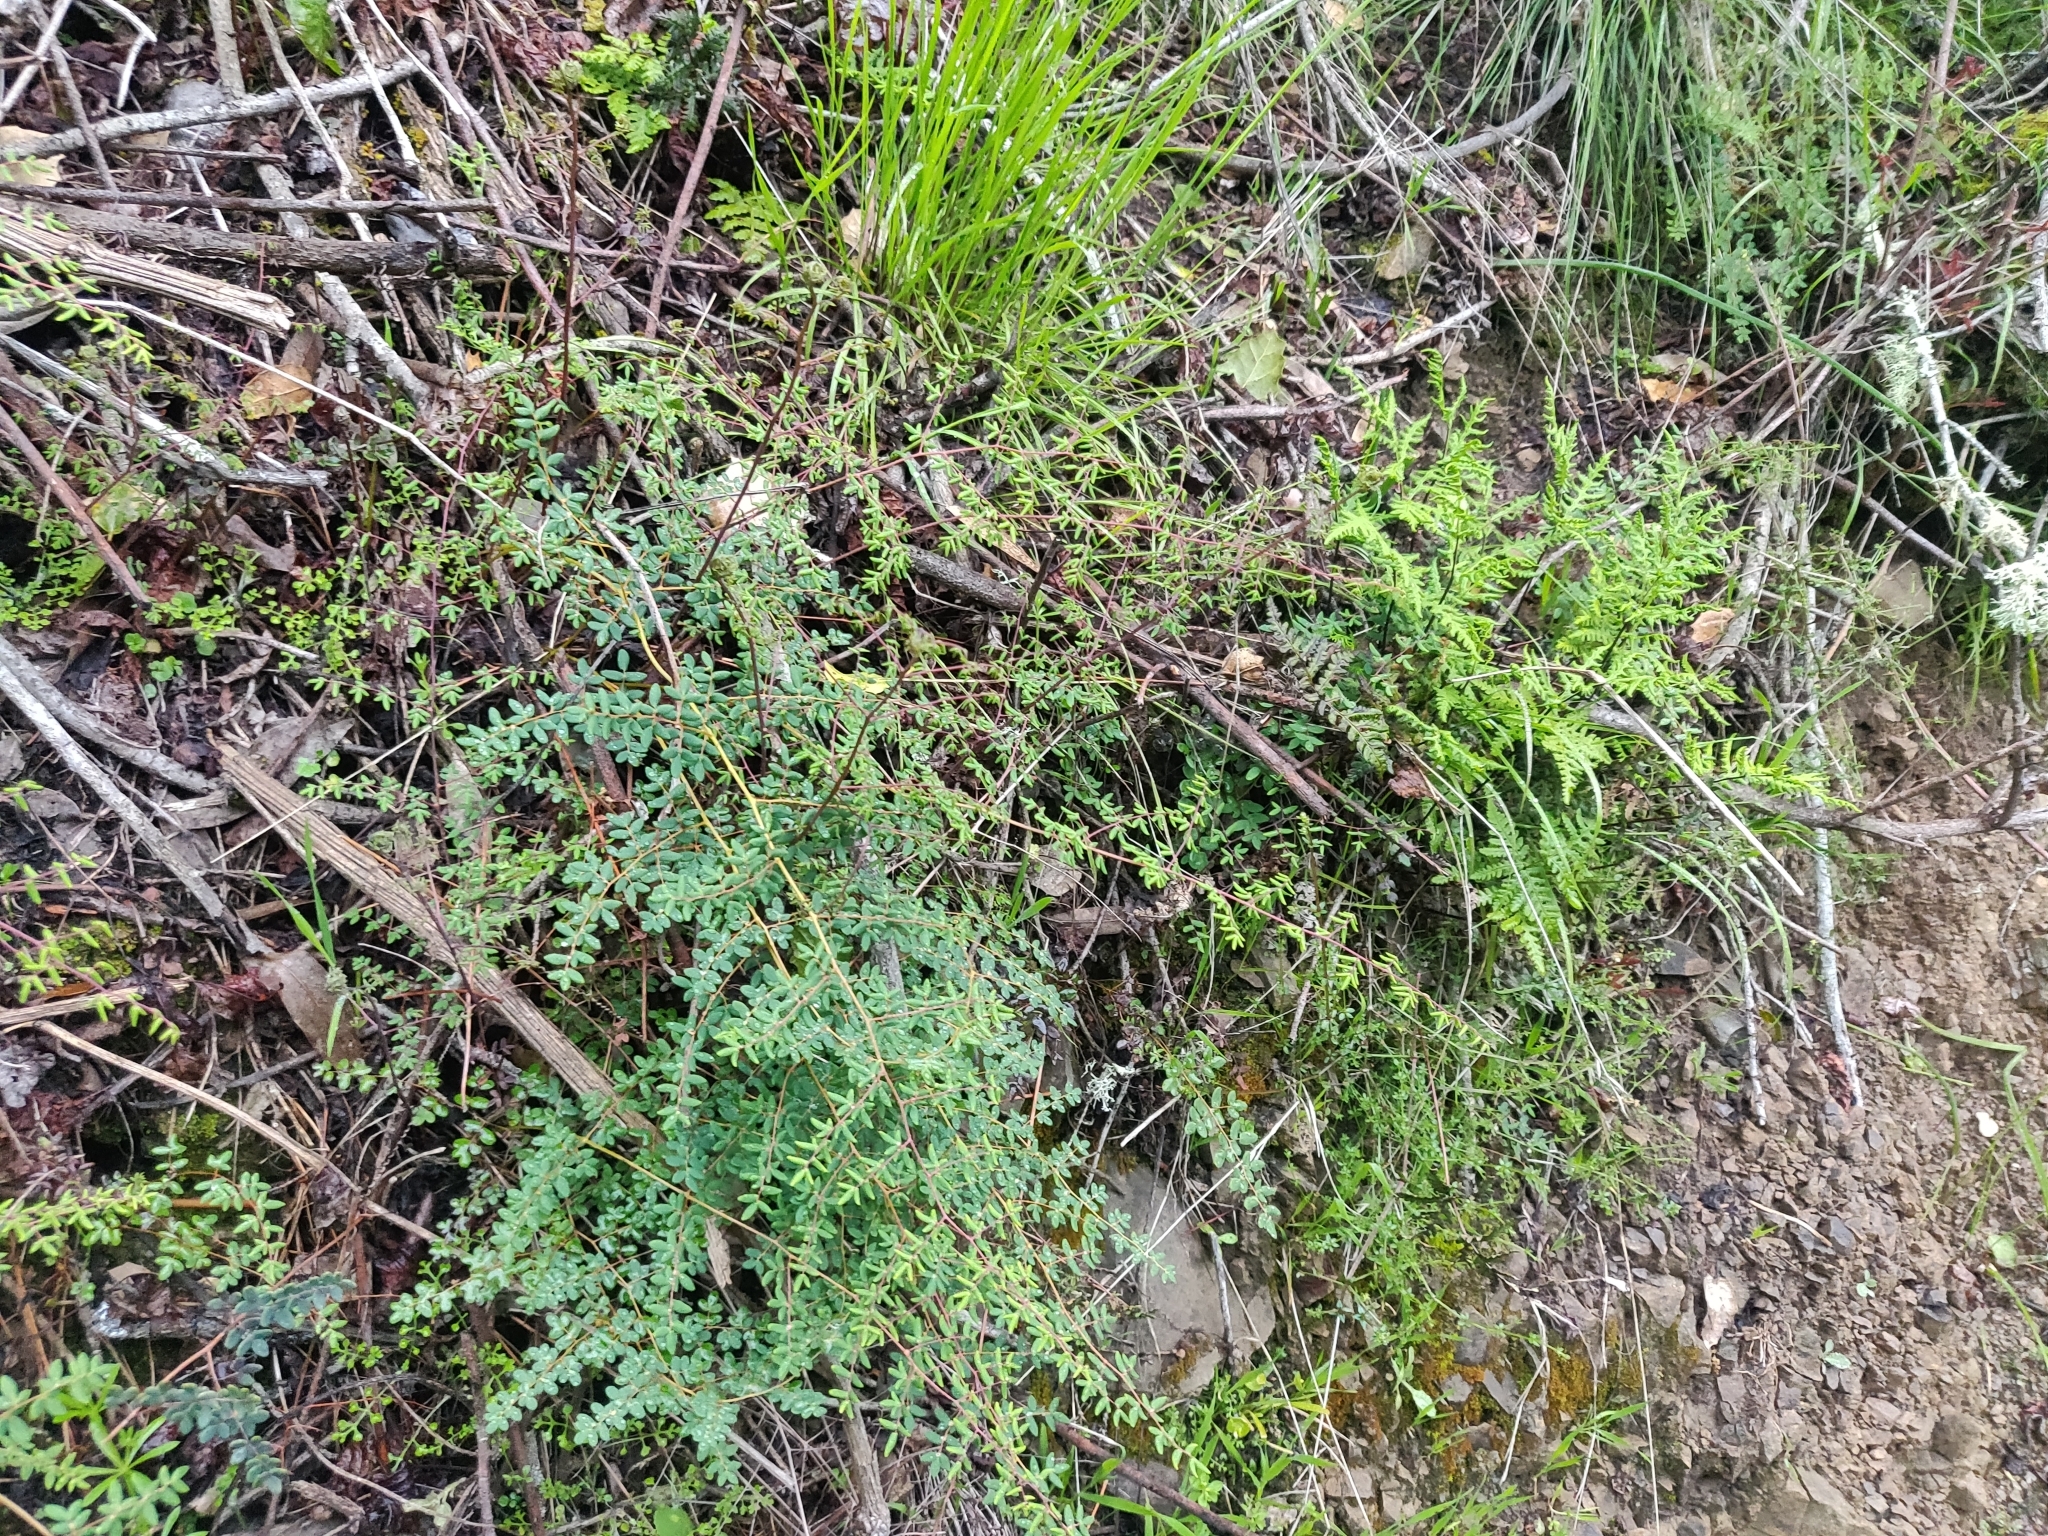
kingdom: Plantae
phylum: Tracheophyta
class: Polypodiopsida
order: Polypodiales
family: Pteridaceae
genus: Pellaea
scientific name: Pellaea andromedifolia
